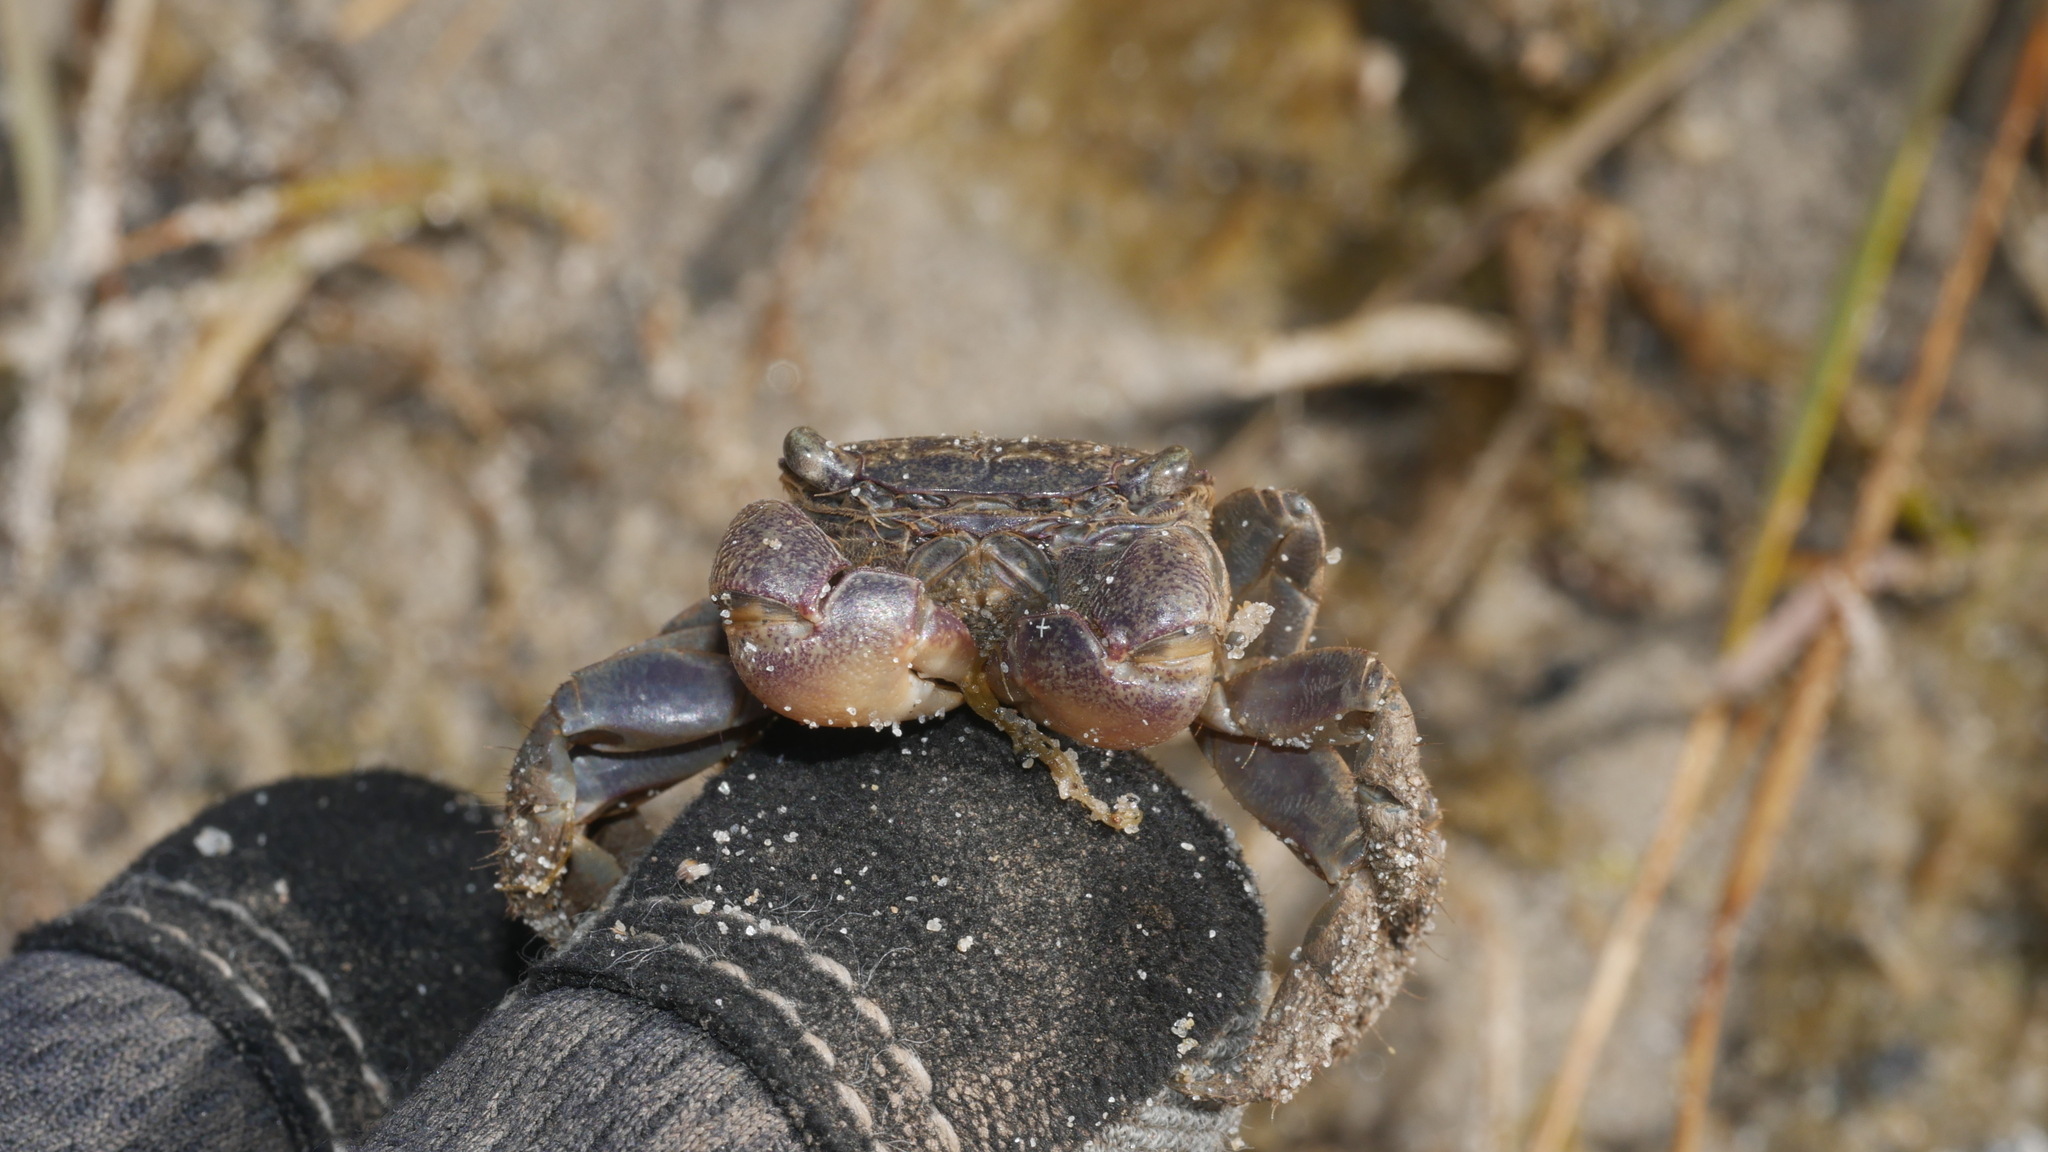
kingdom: Animalia
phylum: Arthropoda
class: Malacostraca
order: Decapoda
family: Sesarmidae
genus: Sesarma
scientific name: Sesarma reticulatum
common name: Heavy marsh crab
